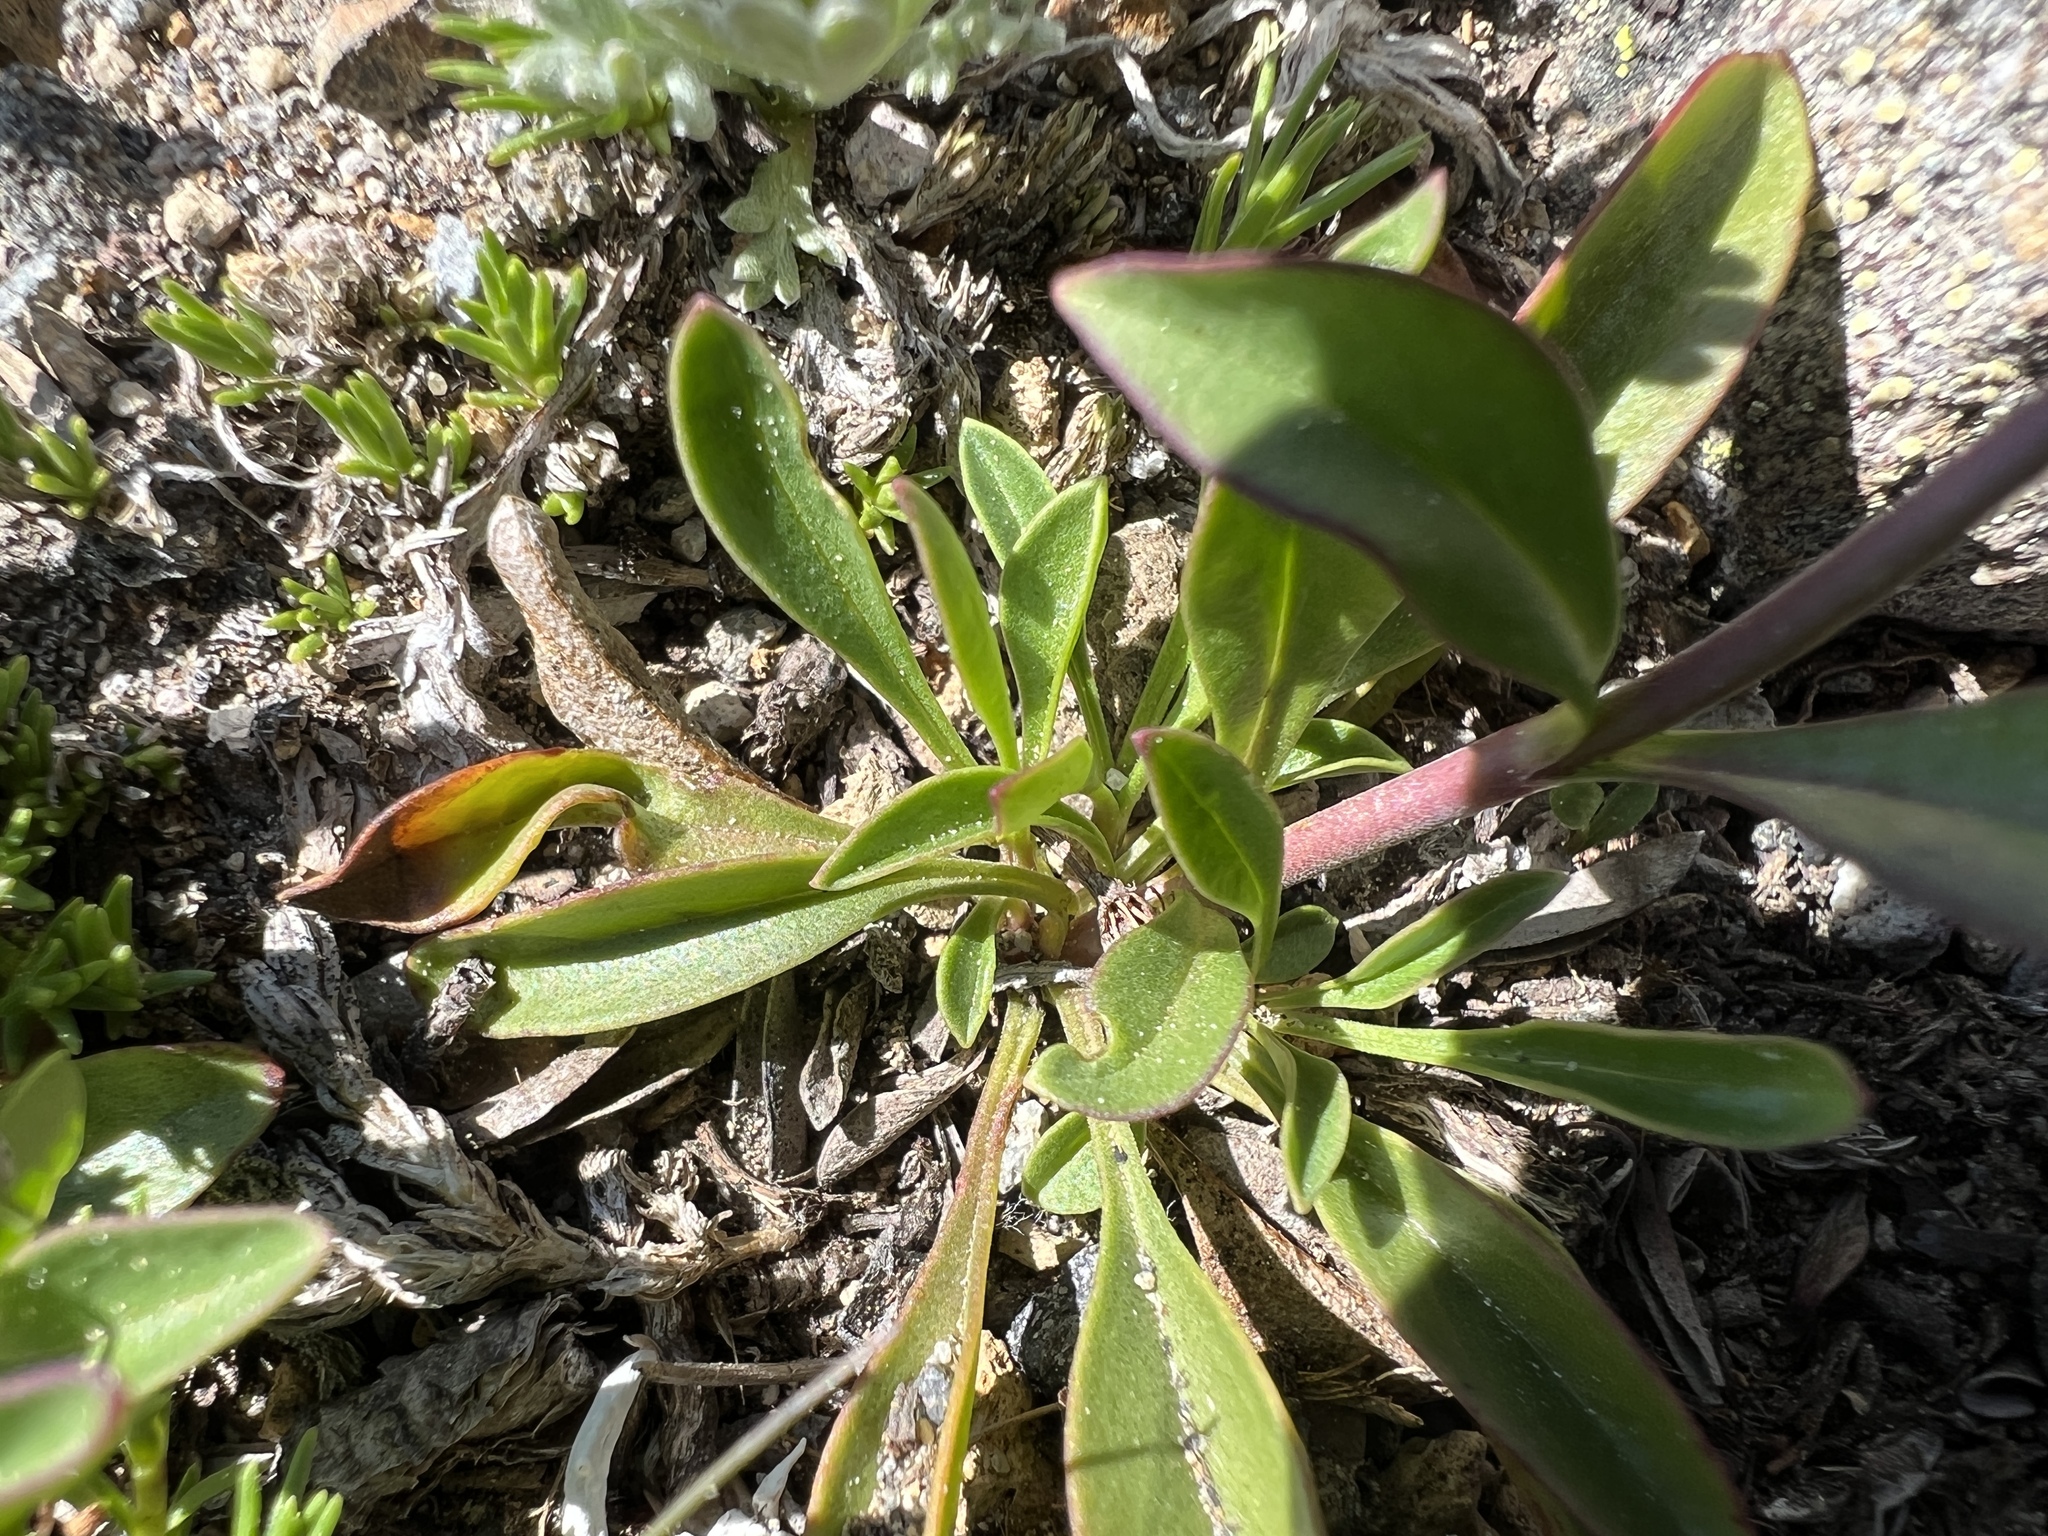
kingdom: Plantae
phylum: Tracheophyta
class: Magnoliopsida
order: Lamiales
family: Plantaginaceae
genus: Penstemon
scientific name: Penstemon procerus
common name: Small-flower penstemon
